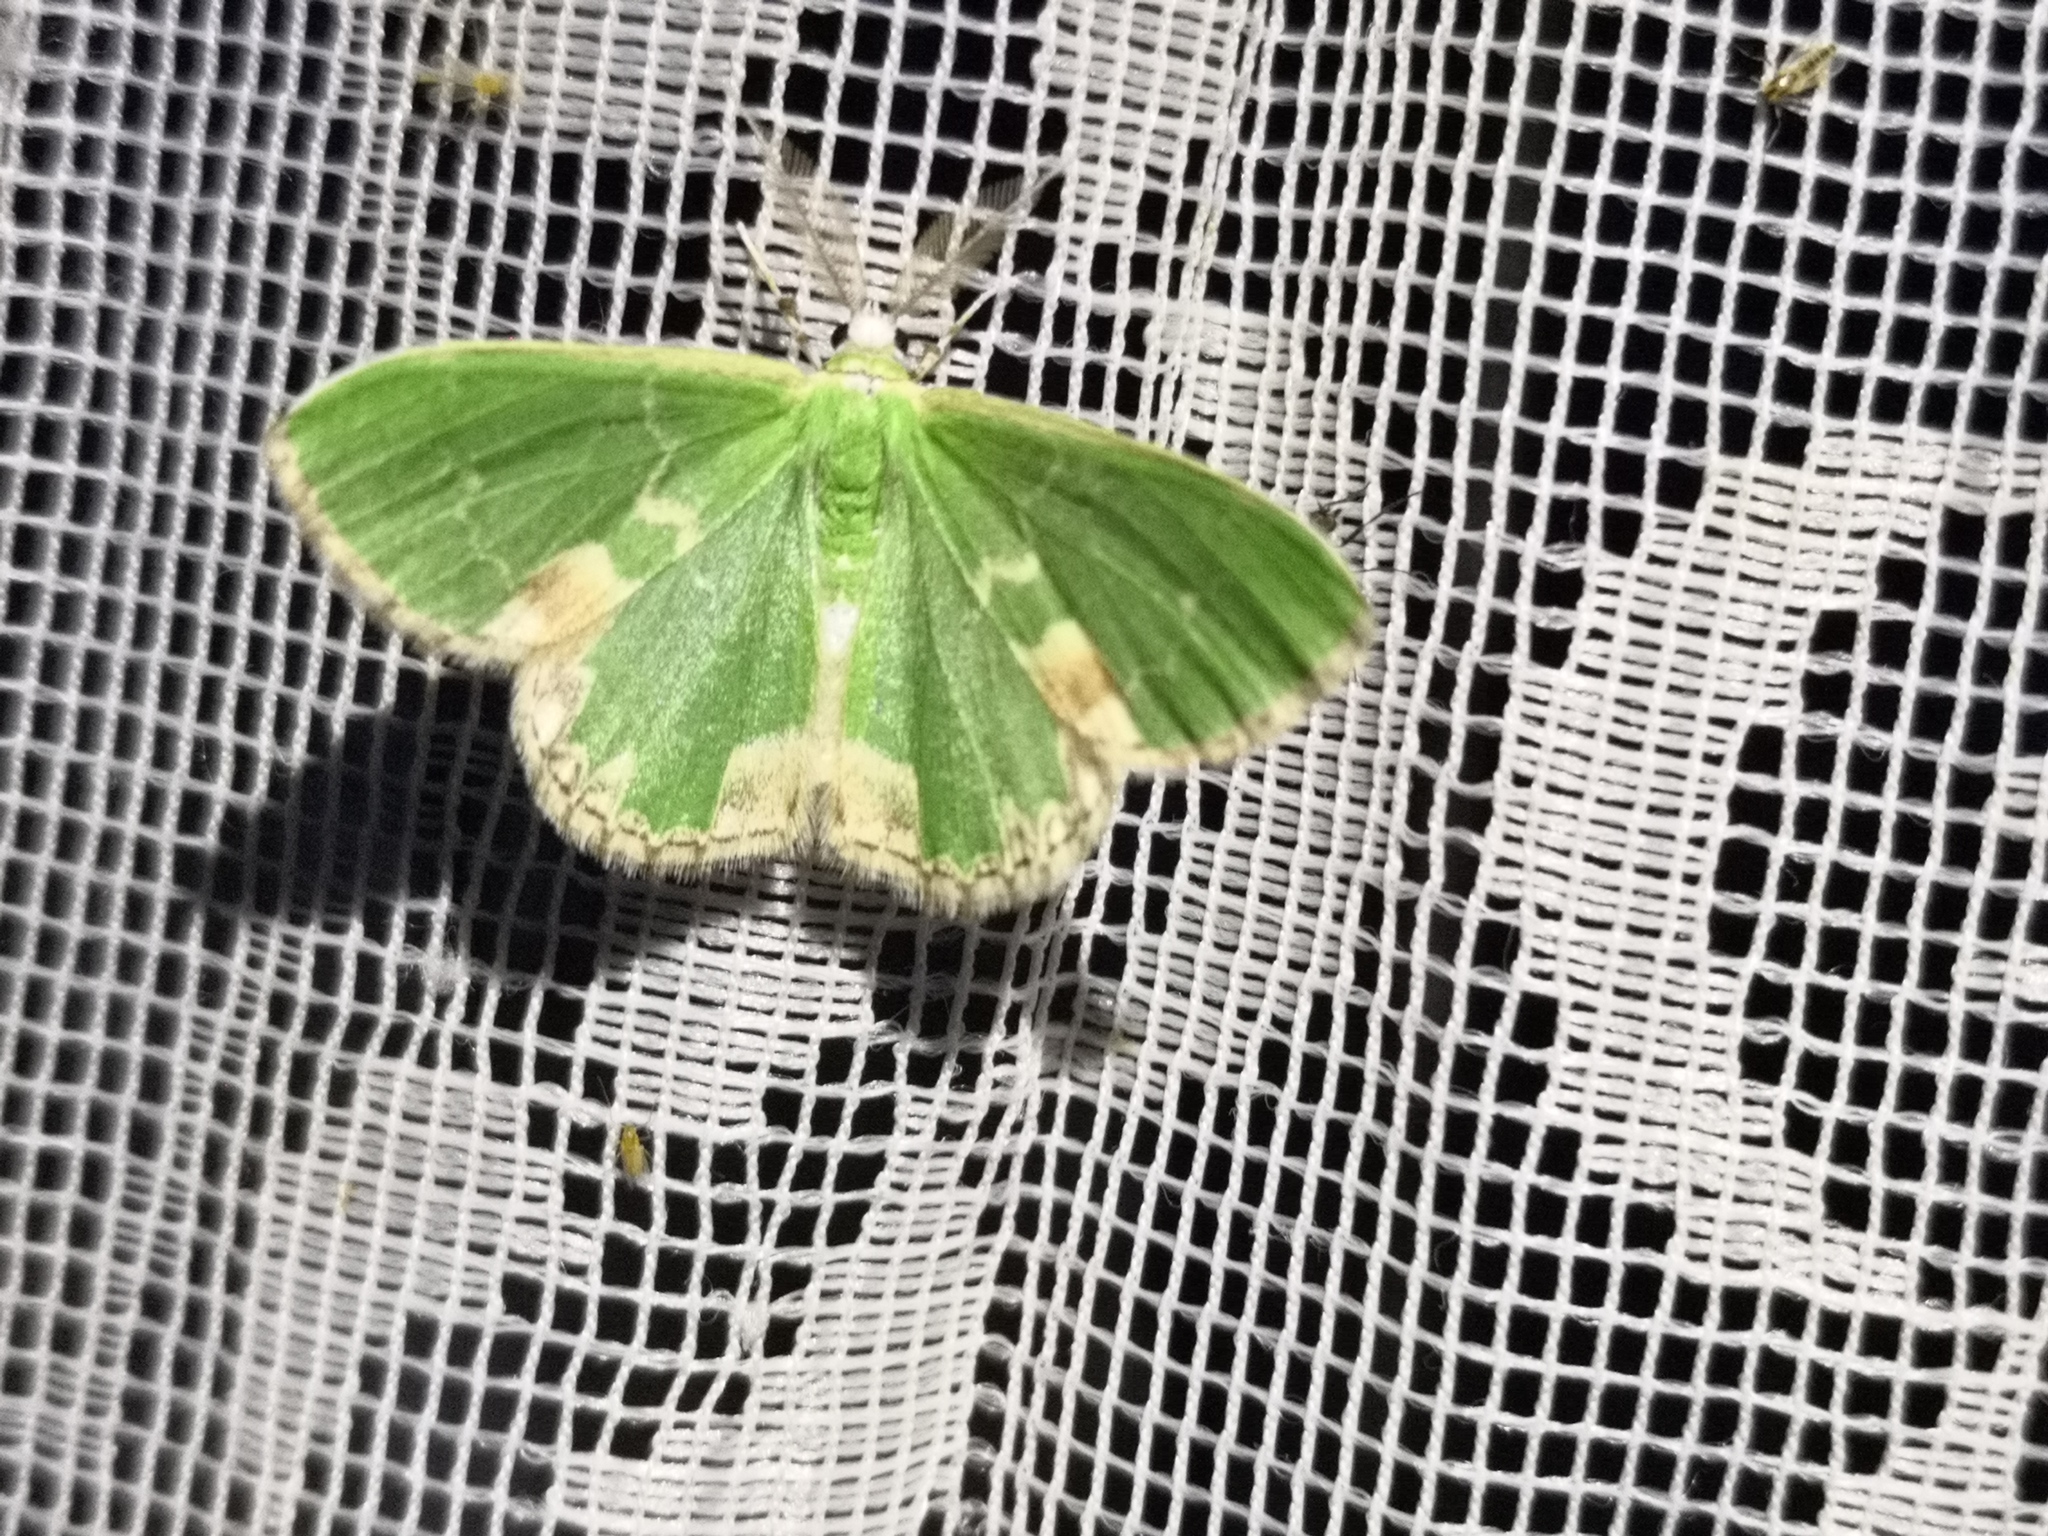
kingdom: Animalia
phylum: Arthropoda
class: Insecta
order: Lepidoptera
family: Geometridae
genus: Comibaena
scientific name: Comibaena bajularia
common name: Blotched emerald
